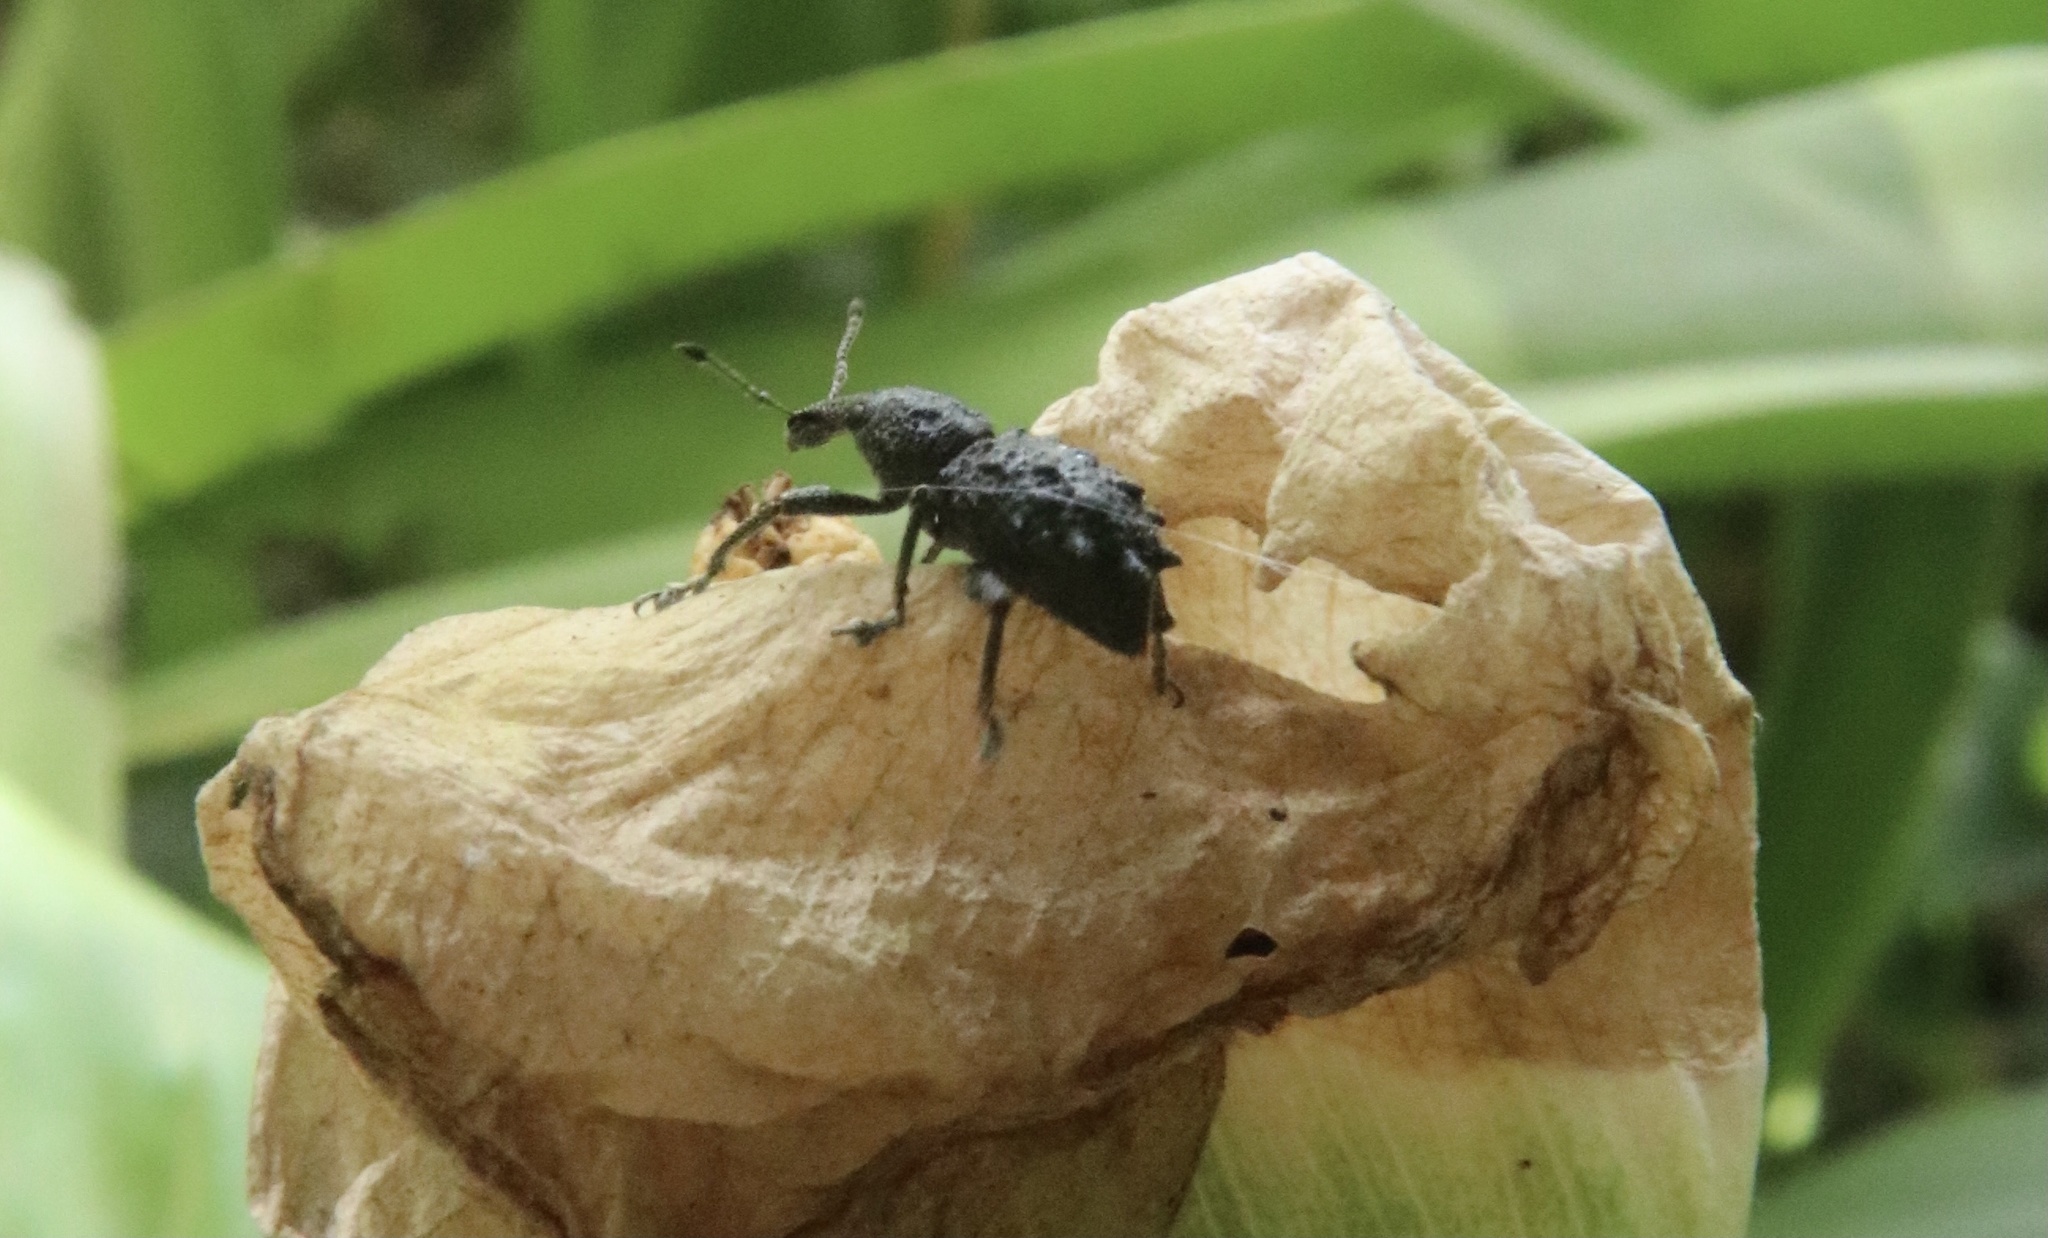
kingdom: Animalia
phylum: Arthropoda
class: Insecta
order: Coleoptera
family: Curculionidae
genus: Megalometis
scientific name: Megalometis spiniferus
